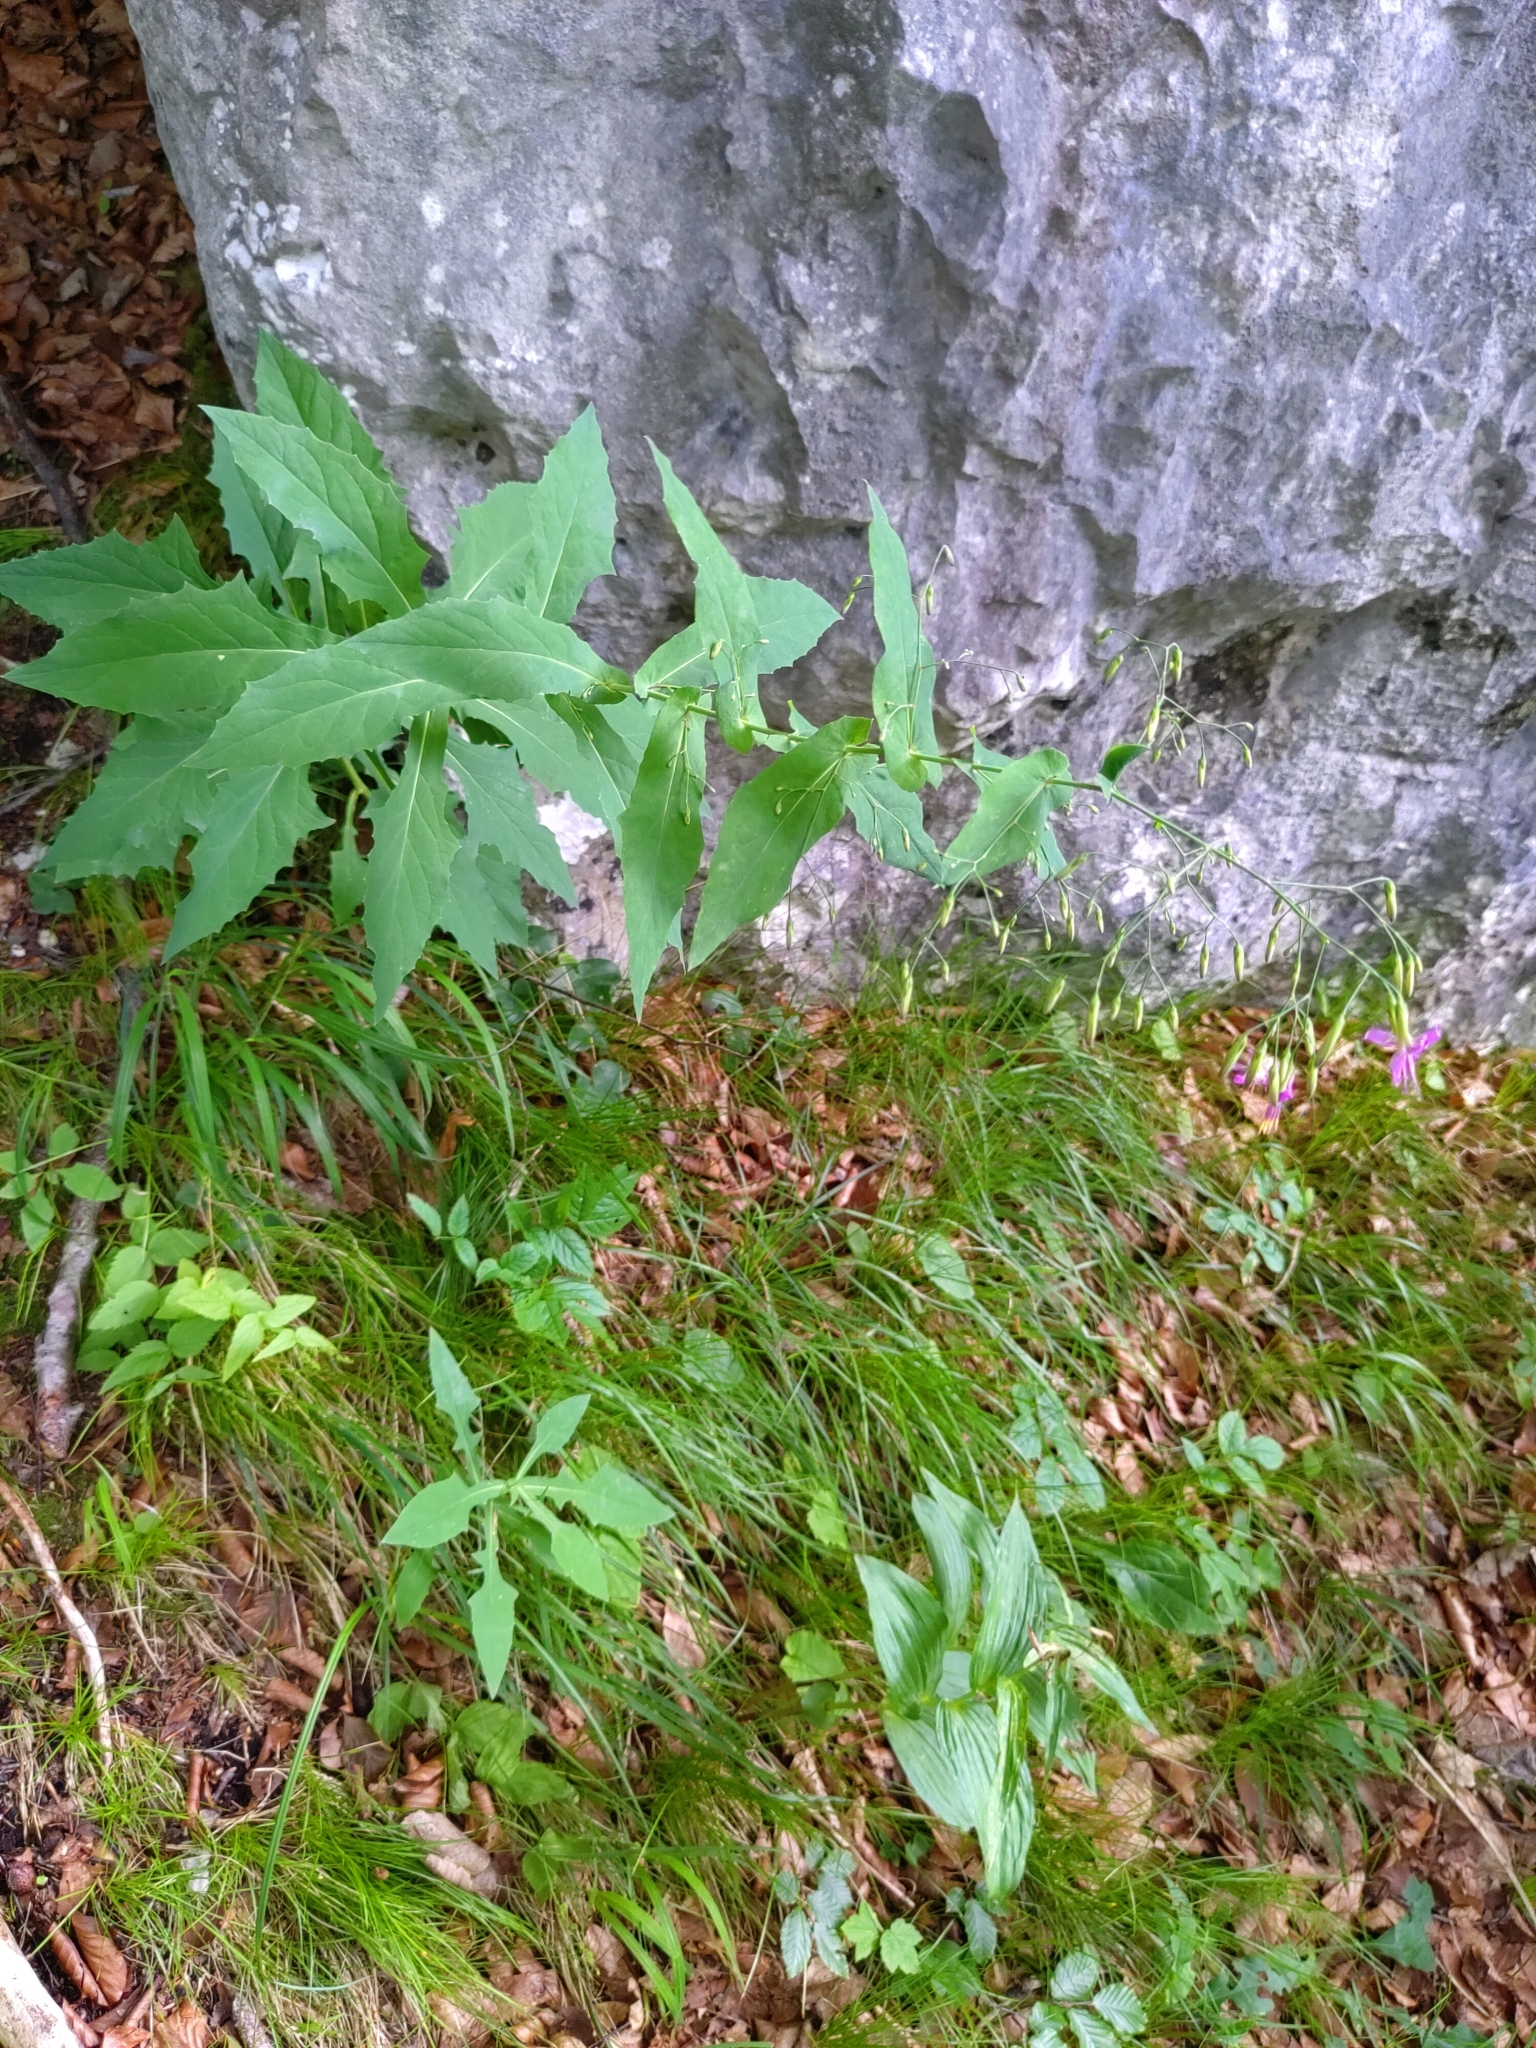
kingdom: Plantae
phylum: Tracheophyta
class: Magnoliopsida
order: Asterales
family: Asteraceae
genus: Prenanthes
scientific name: Prenanthes purpurea
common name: Purple lettuce
